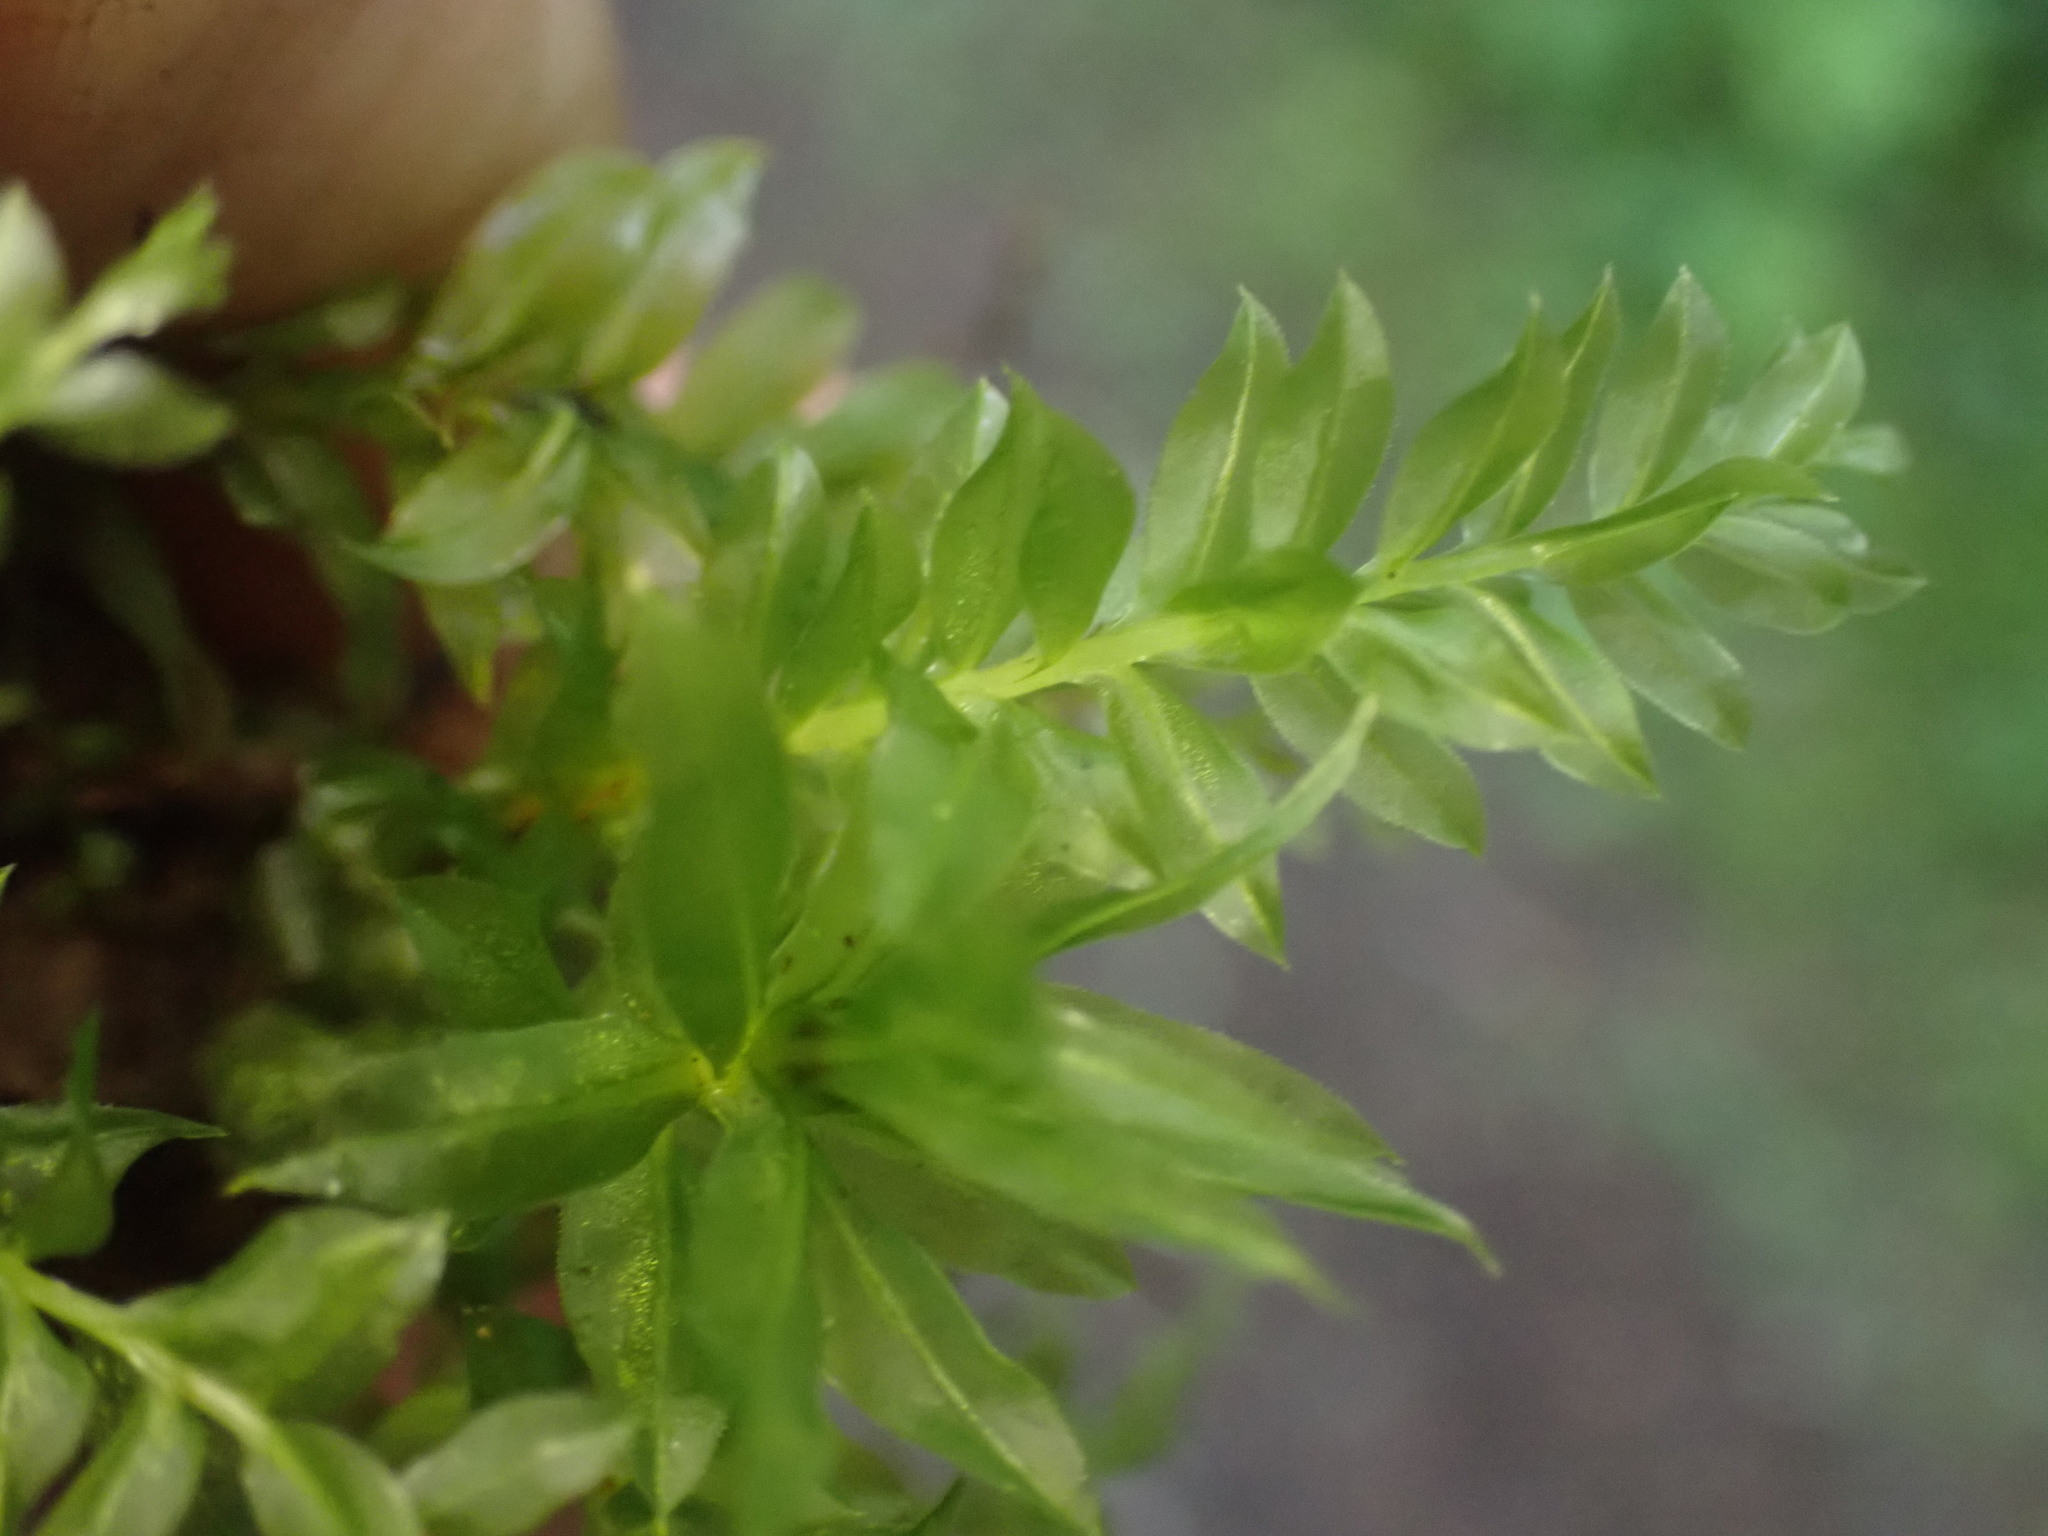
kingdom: Plantae
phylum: Bryophyta
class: Bryopsida
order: Bryales
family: Mniaceae
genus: Plagiomnium
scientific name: Plagiomnium insigne
